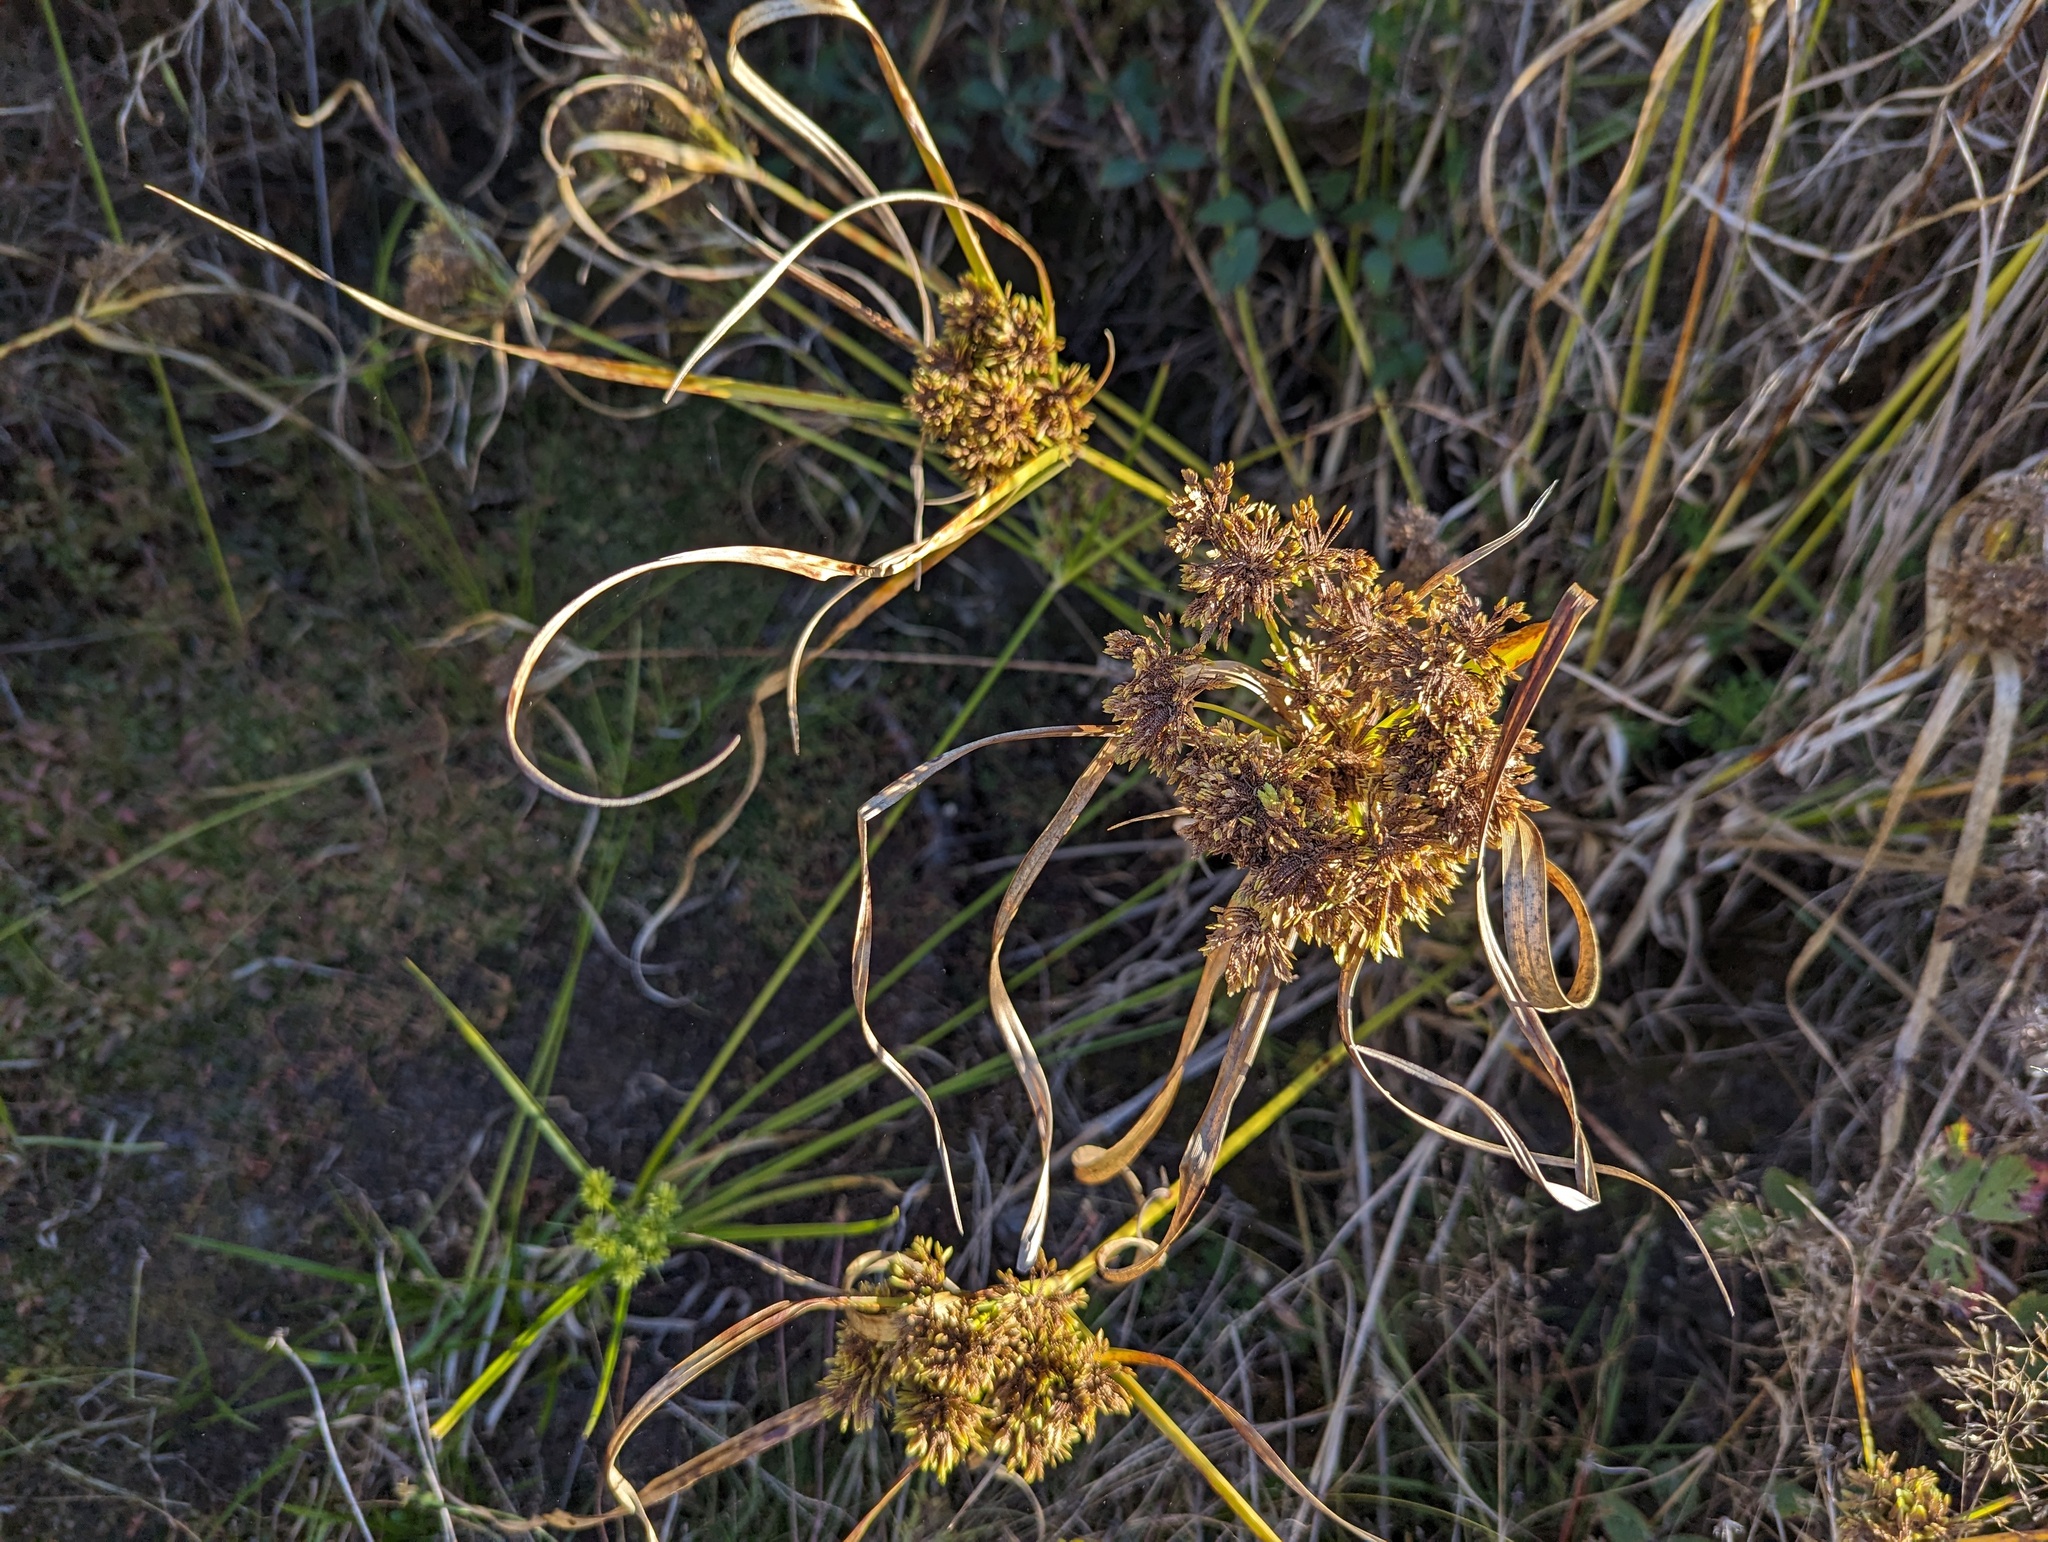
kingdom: Plantae
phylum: Tracheophyta
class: Liliopsida
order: Poales
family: Cyperaceae
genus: Cyperus
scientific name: Cyperus eragrostis
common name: Tall flatsedge
